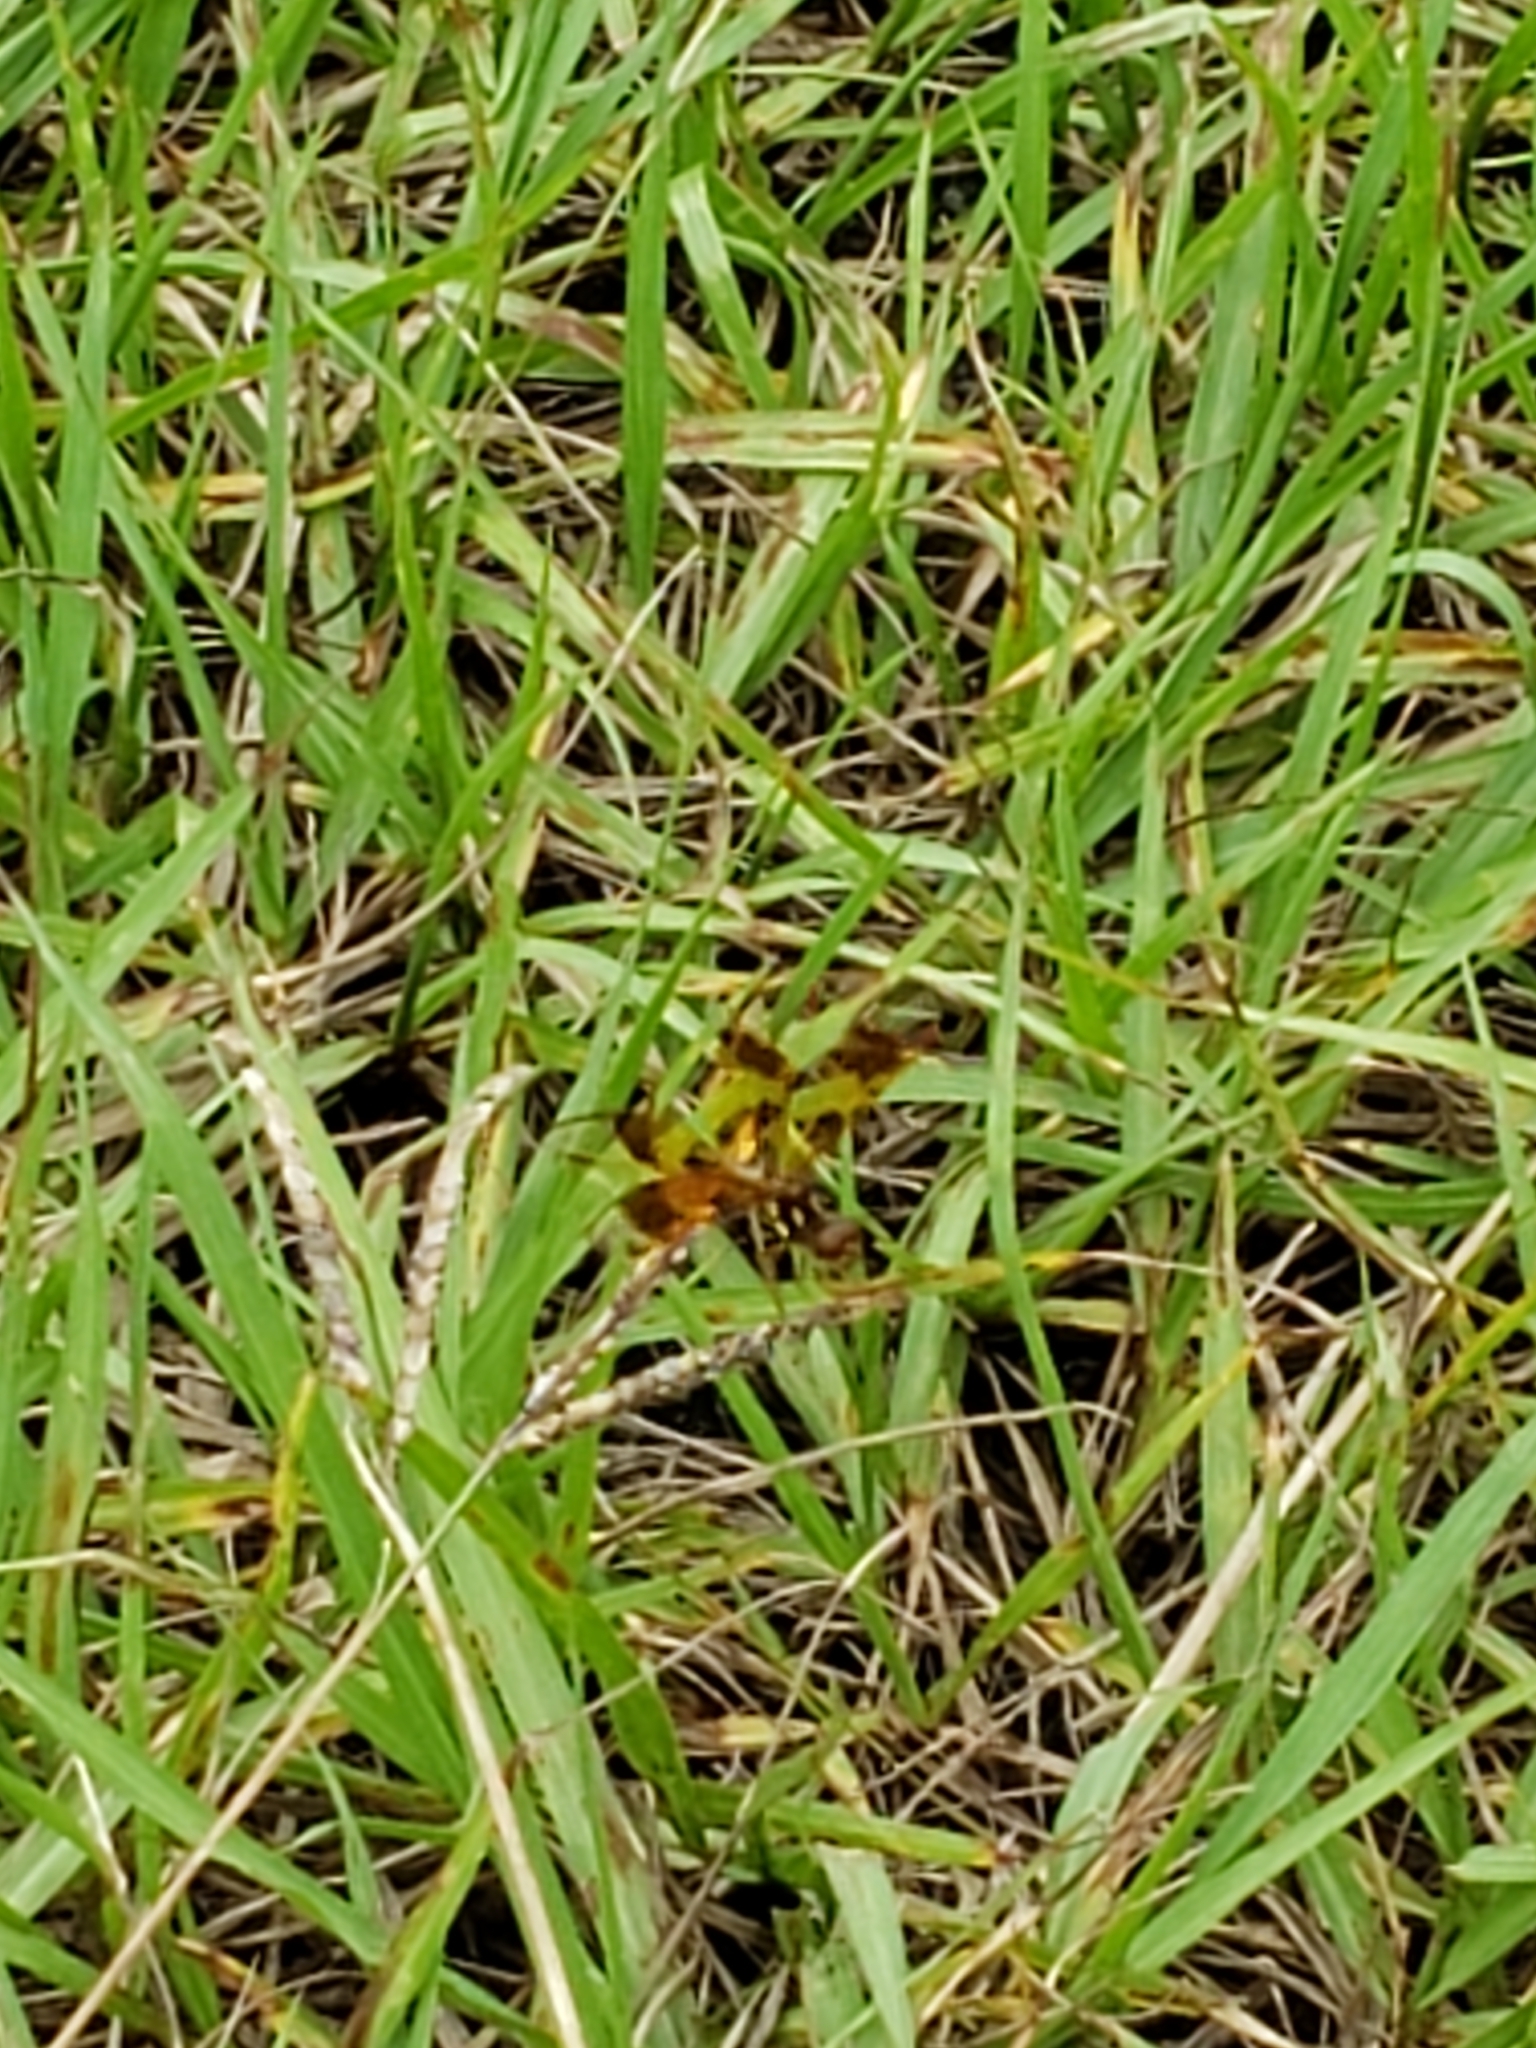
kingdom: Animalia
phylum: Arthropoda
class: Insecta
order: Odonata
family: Libellulidae
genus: Perithemis
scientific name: Perithemis tenera
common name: Eastern amberwing
